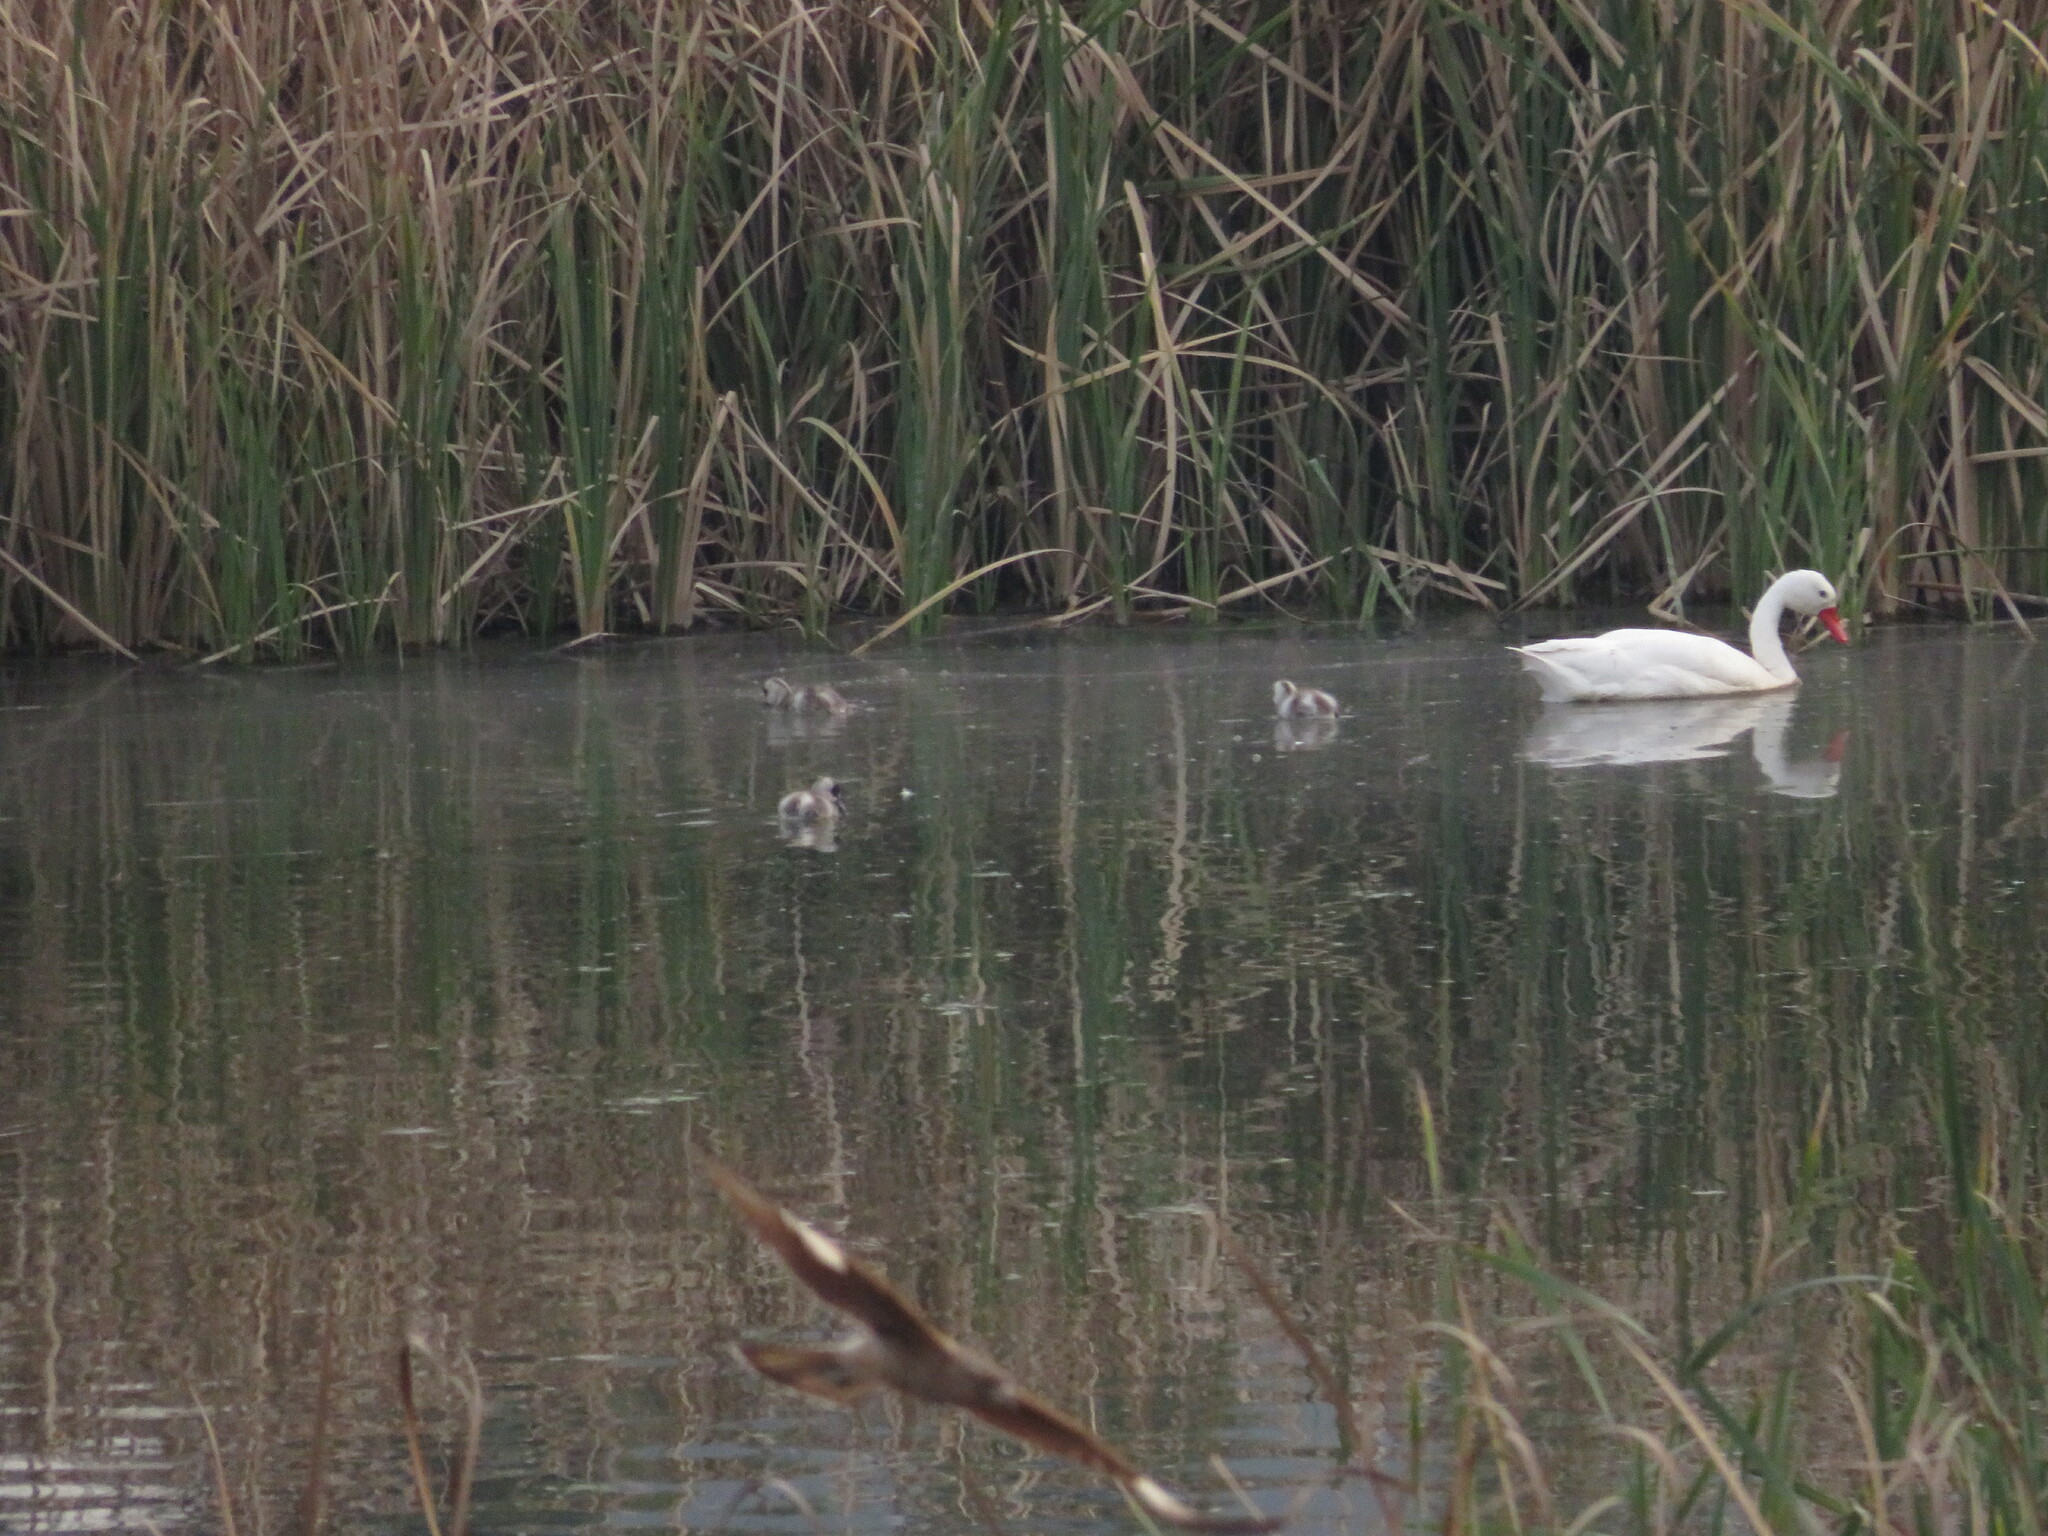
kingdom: Animalia
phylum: Chordata
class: Aves
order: Anseriformes
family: Anatidae
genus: Coscoroba
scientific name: Coscoroba coscoroba
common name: Coscoroba swan
